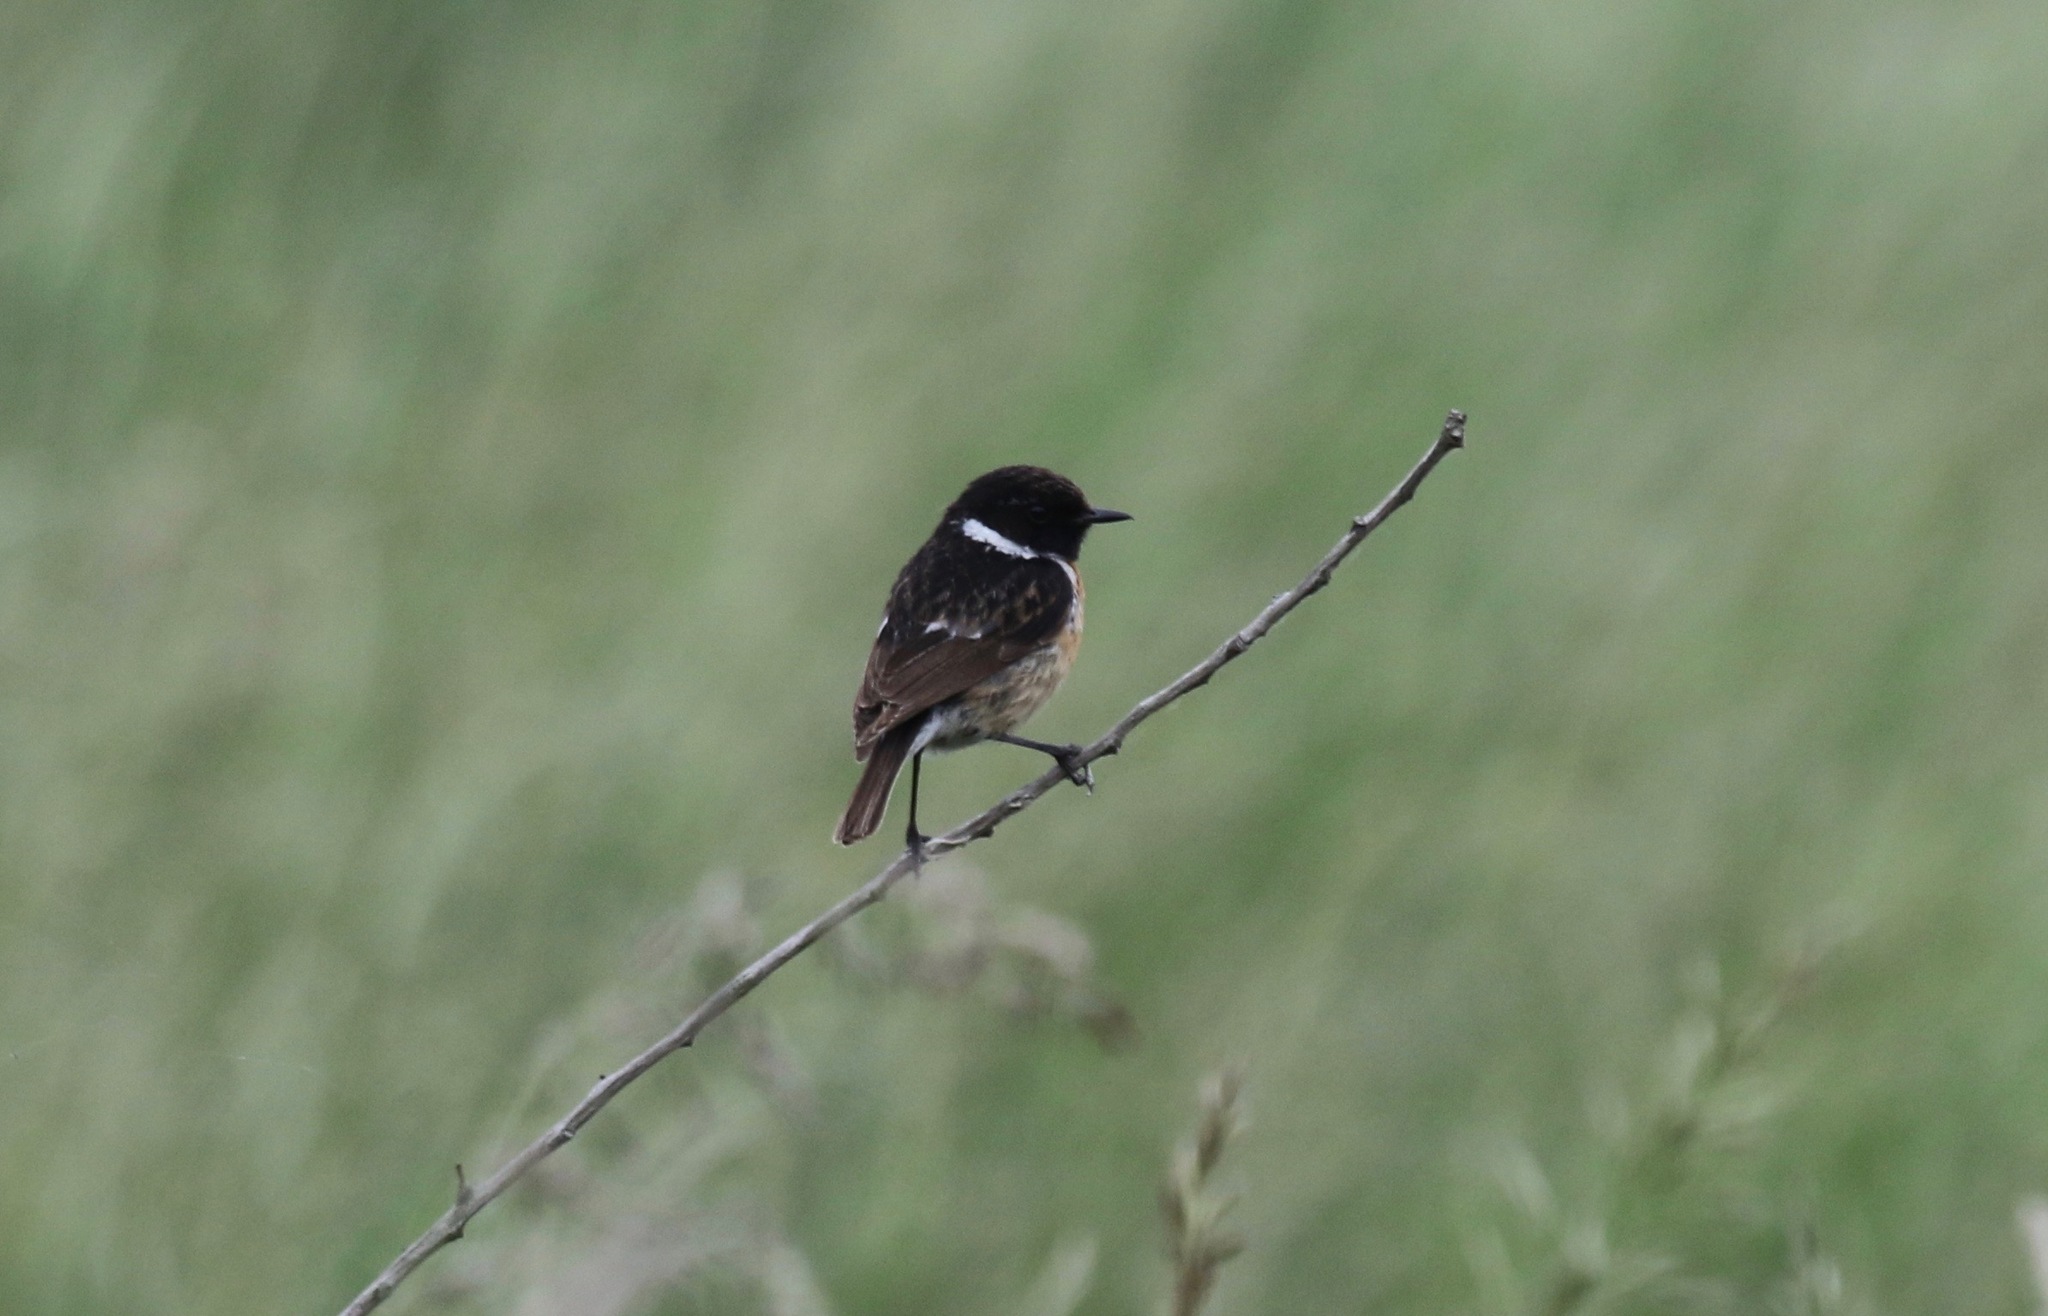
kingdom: Animalia
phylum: Chordata
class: Aves
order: Passeriformes
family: Muscicapidae
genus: Saxicola
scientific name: Saxicola rubicola
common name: European stonechat
